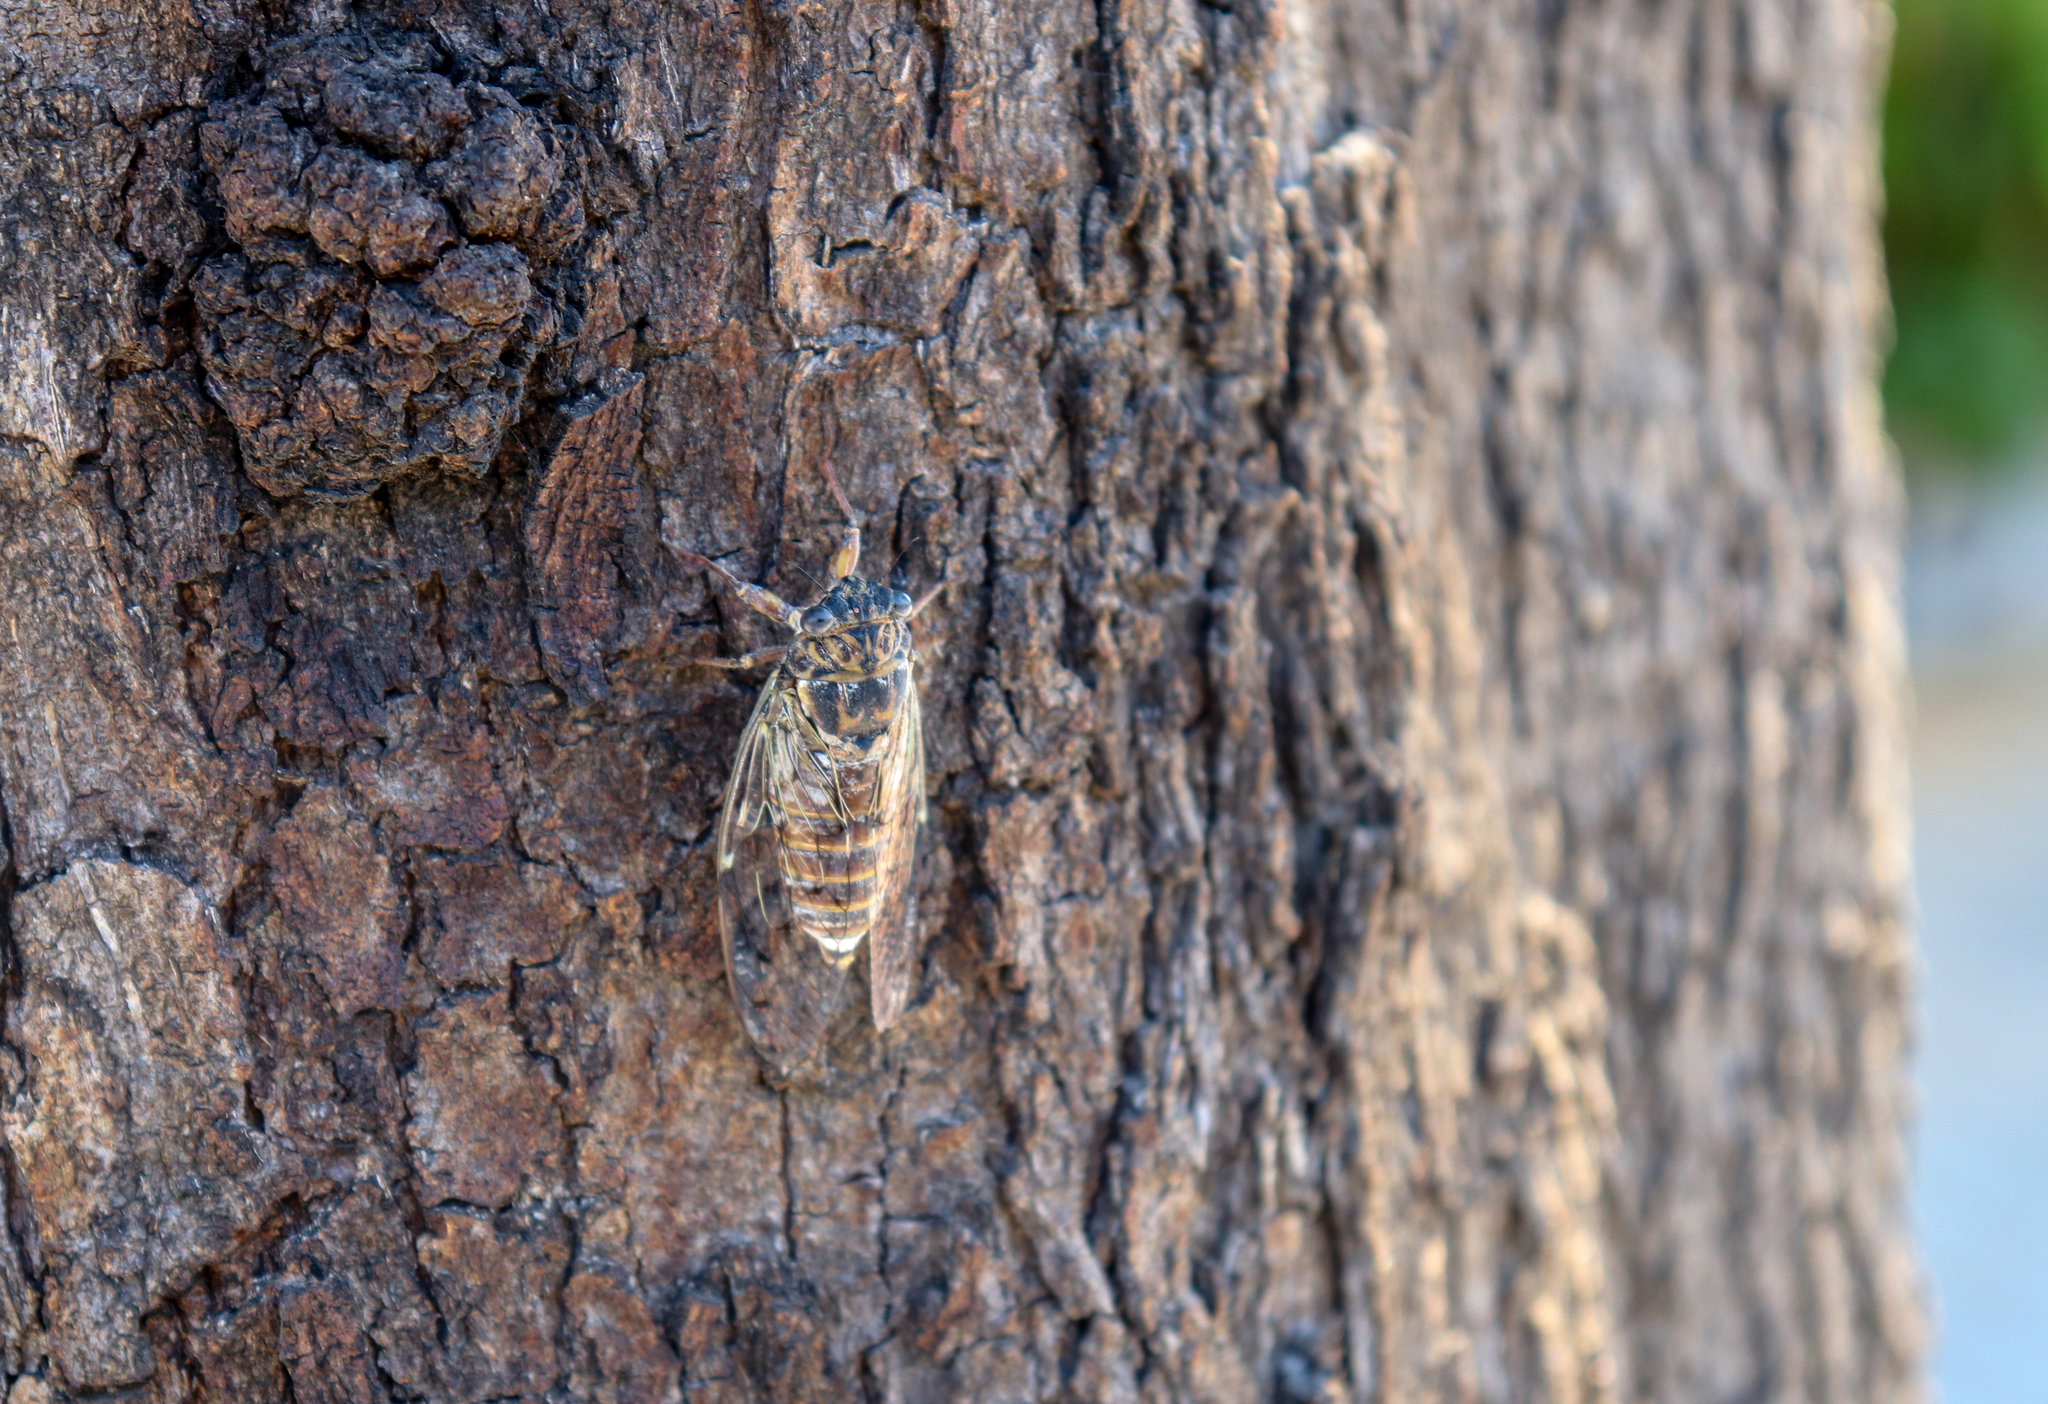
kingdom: Animalia
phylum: Arthropoda
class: Insecta
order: Hemiptera
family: Cicadidae
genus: Cicada
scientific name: Cicada orni
